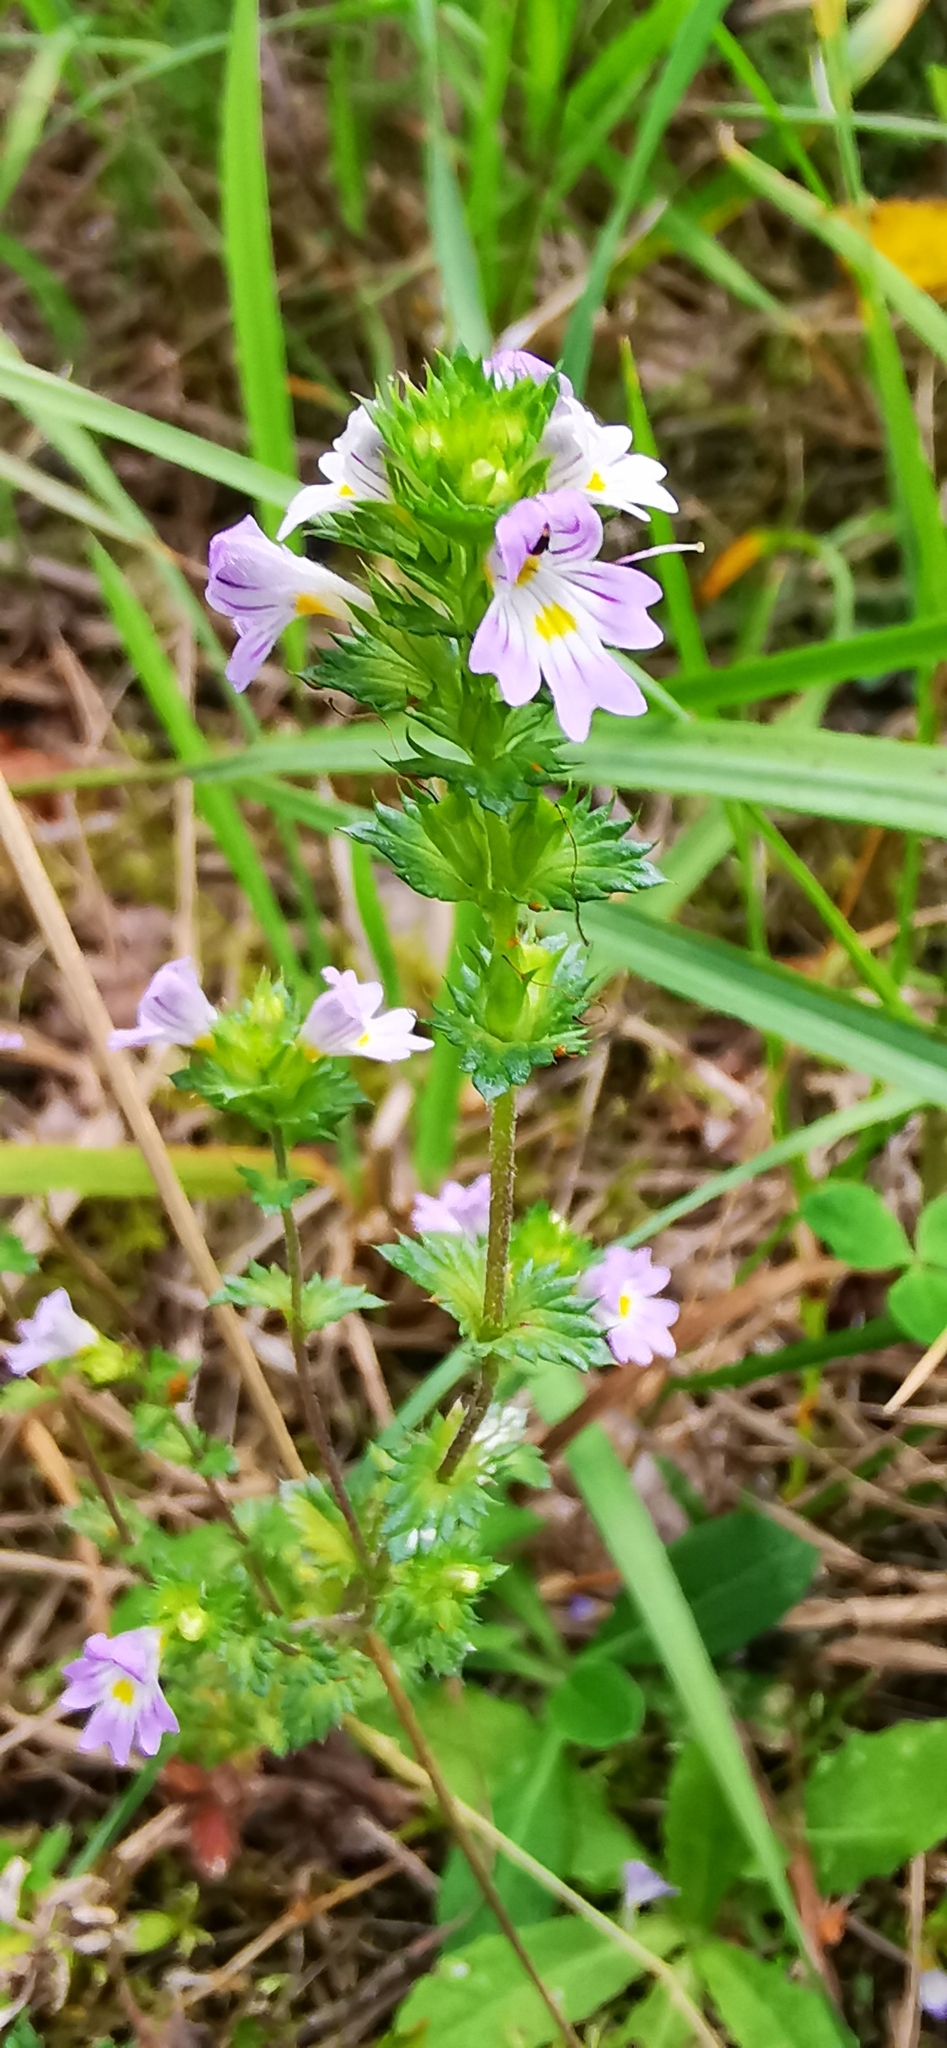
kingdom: Plantae
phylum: Tracheophyta
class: Magnoliopsida
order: Lamiales
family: Orobanchaceae
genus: Euphrasia
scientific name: Euphrasia stricta
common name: Drug eyebright
